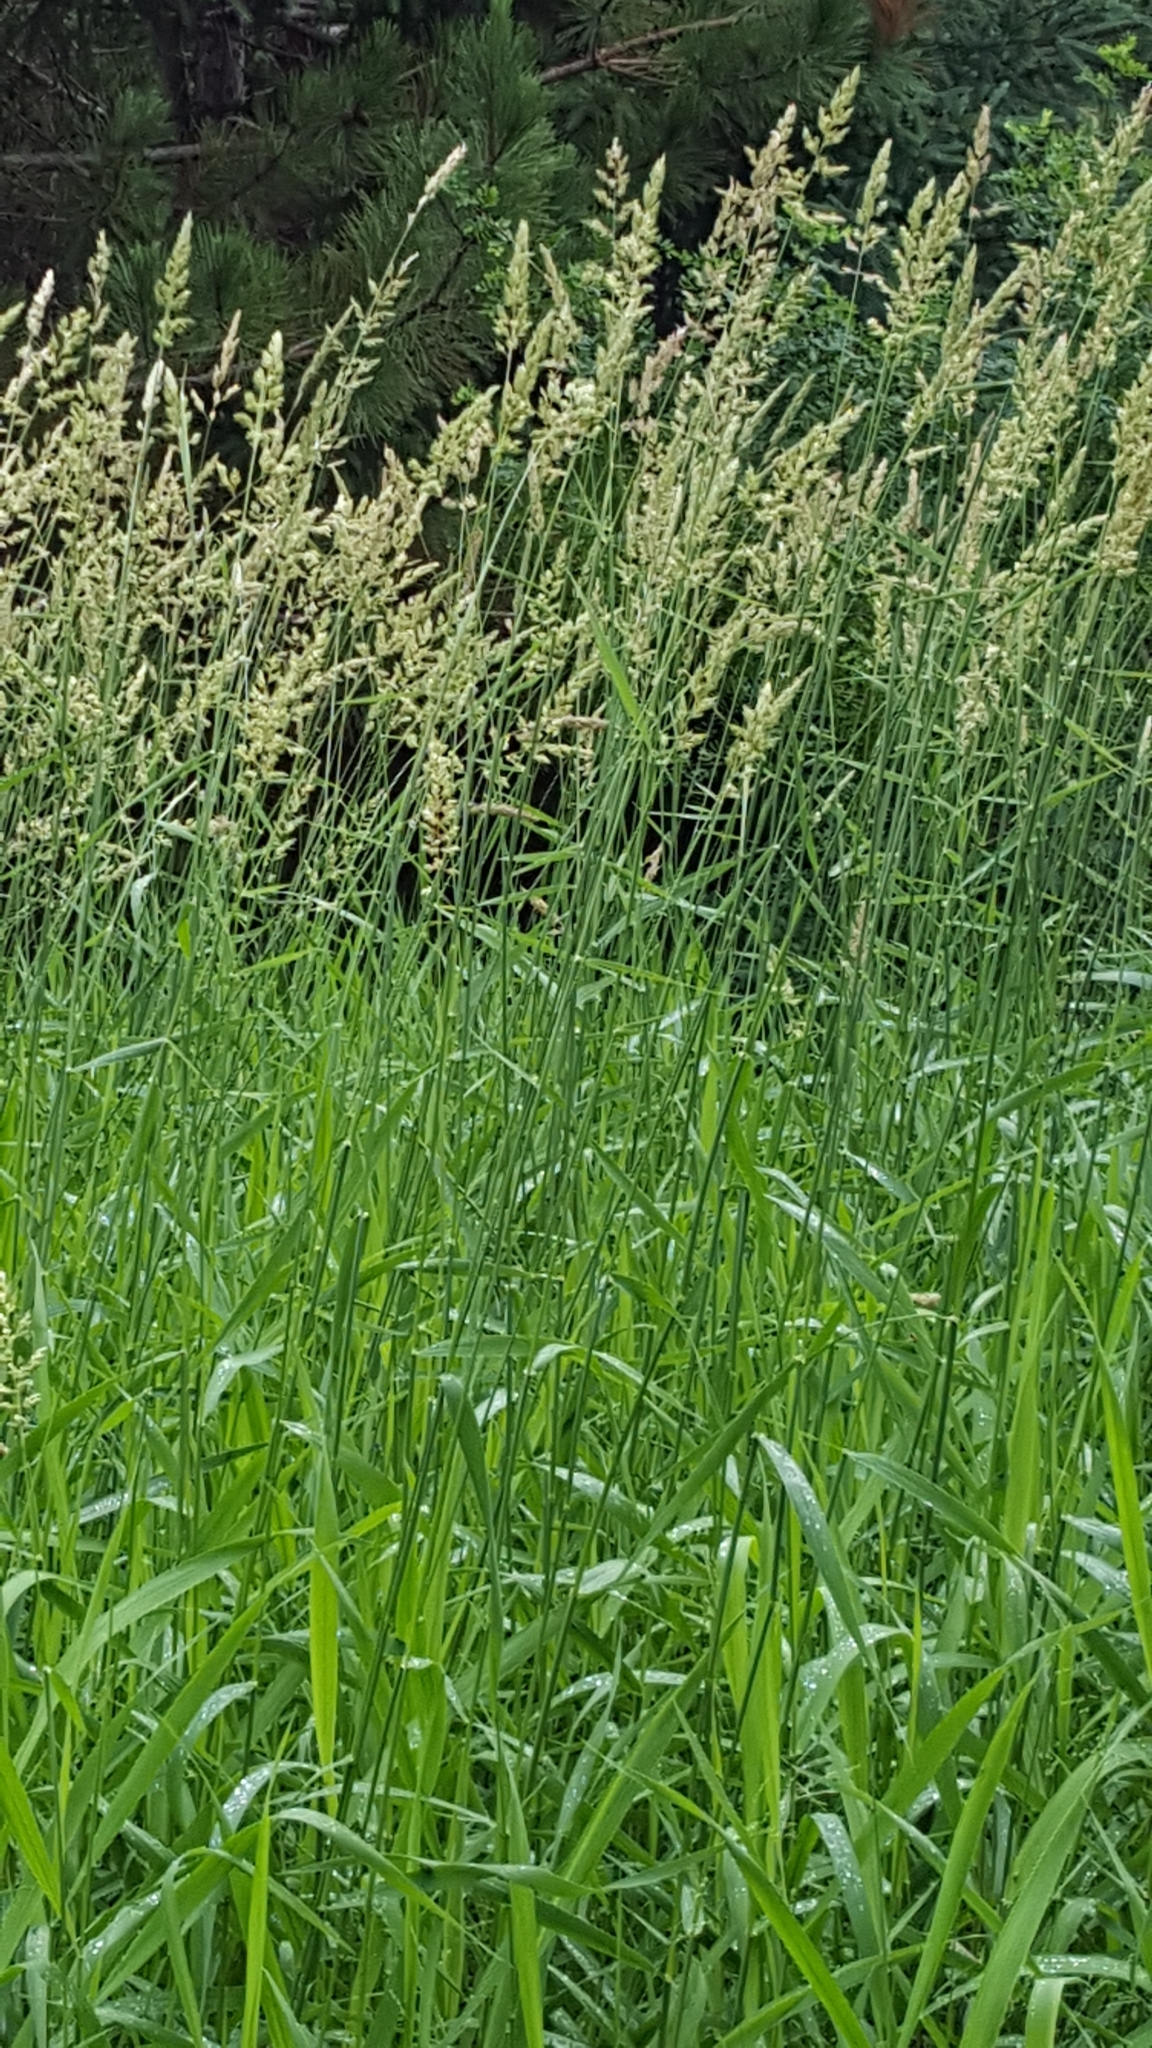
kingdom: Plantae
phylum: Tracheophyta
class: Liliopsida
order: Poales
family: Poaceae
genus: Phalaris
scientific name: Phalaris arundinacea
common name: Reed canary-grass
